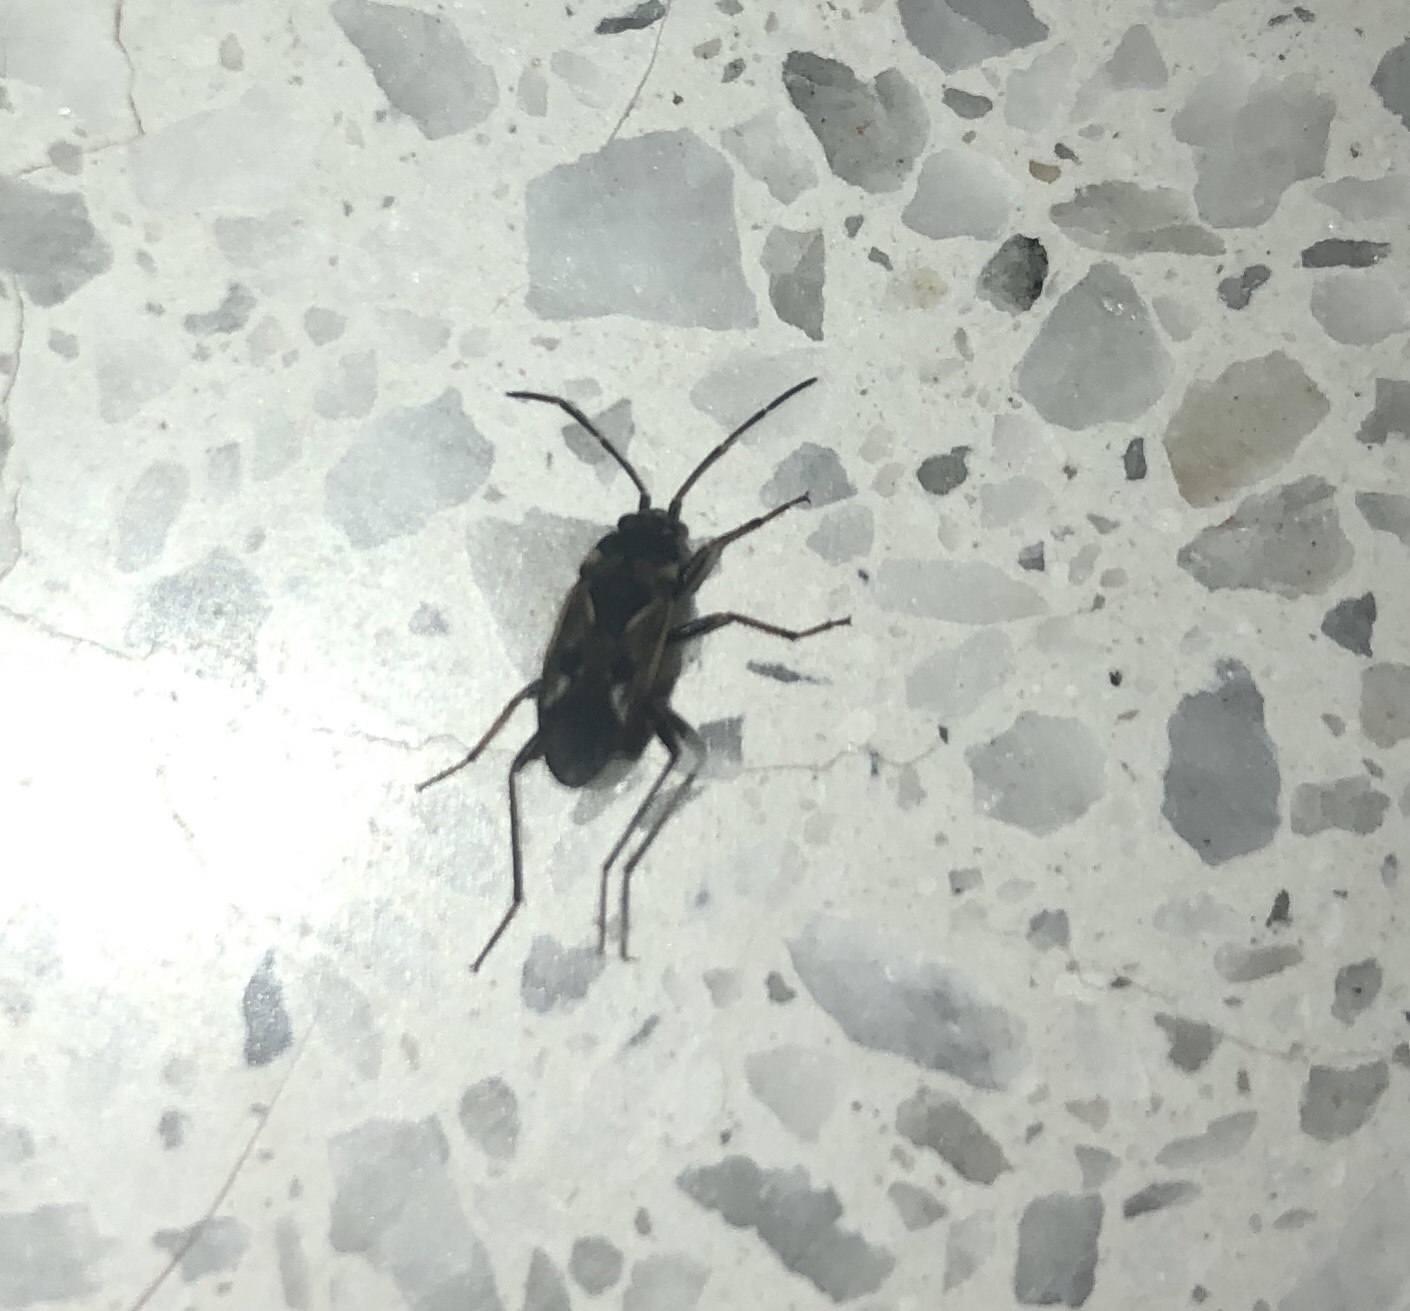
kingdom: Animalia
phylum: Arthropoda
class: Insecta
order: Hemiptera
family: Rhyparochromidae
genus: Rhyparochromus
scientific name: Rhyparochromus vulgaris
